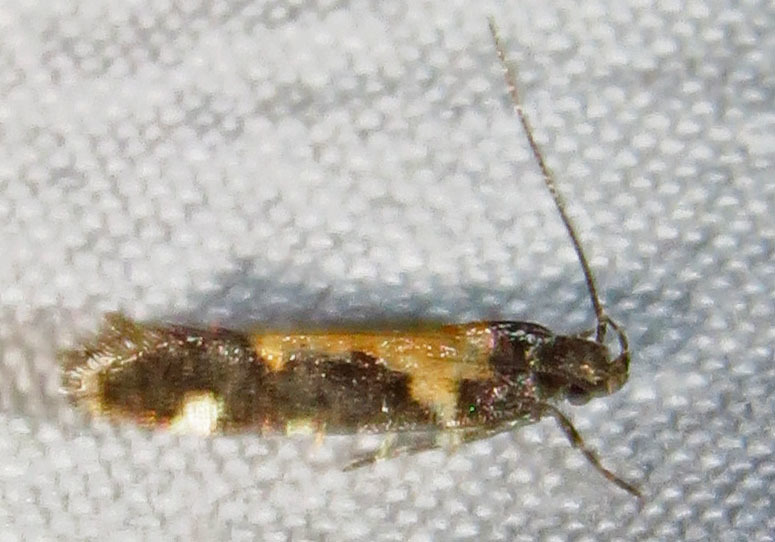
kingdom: Animalia
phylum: Arthropoda
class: Insecta
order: Lepidoptera
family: Gelechiidae
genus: Stegasta
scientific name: Stegasta bosqueella
